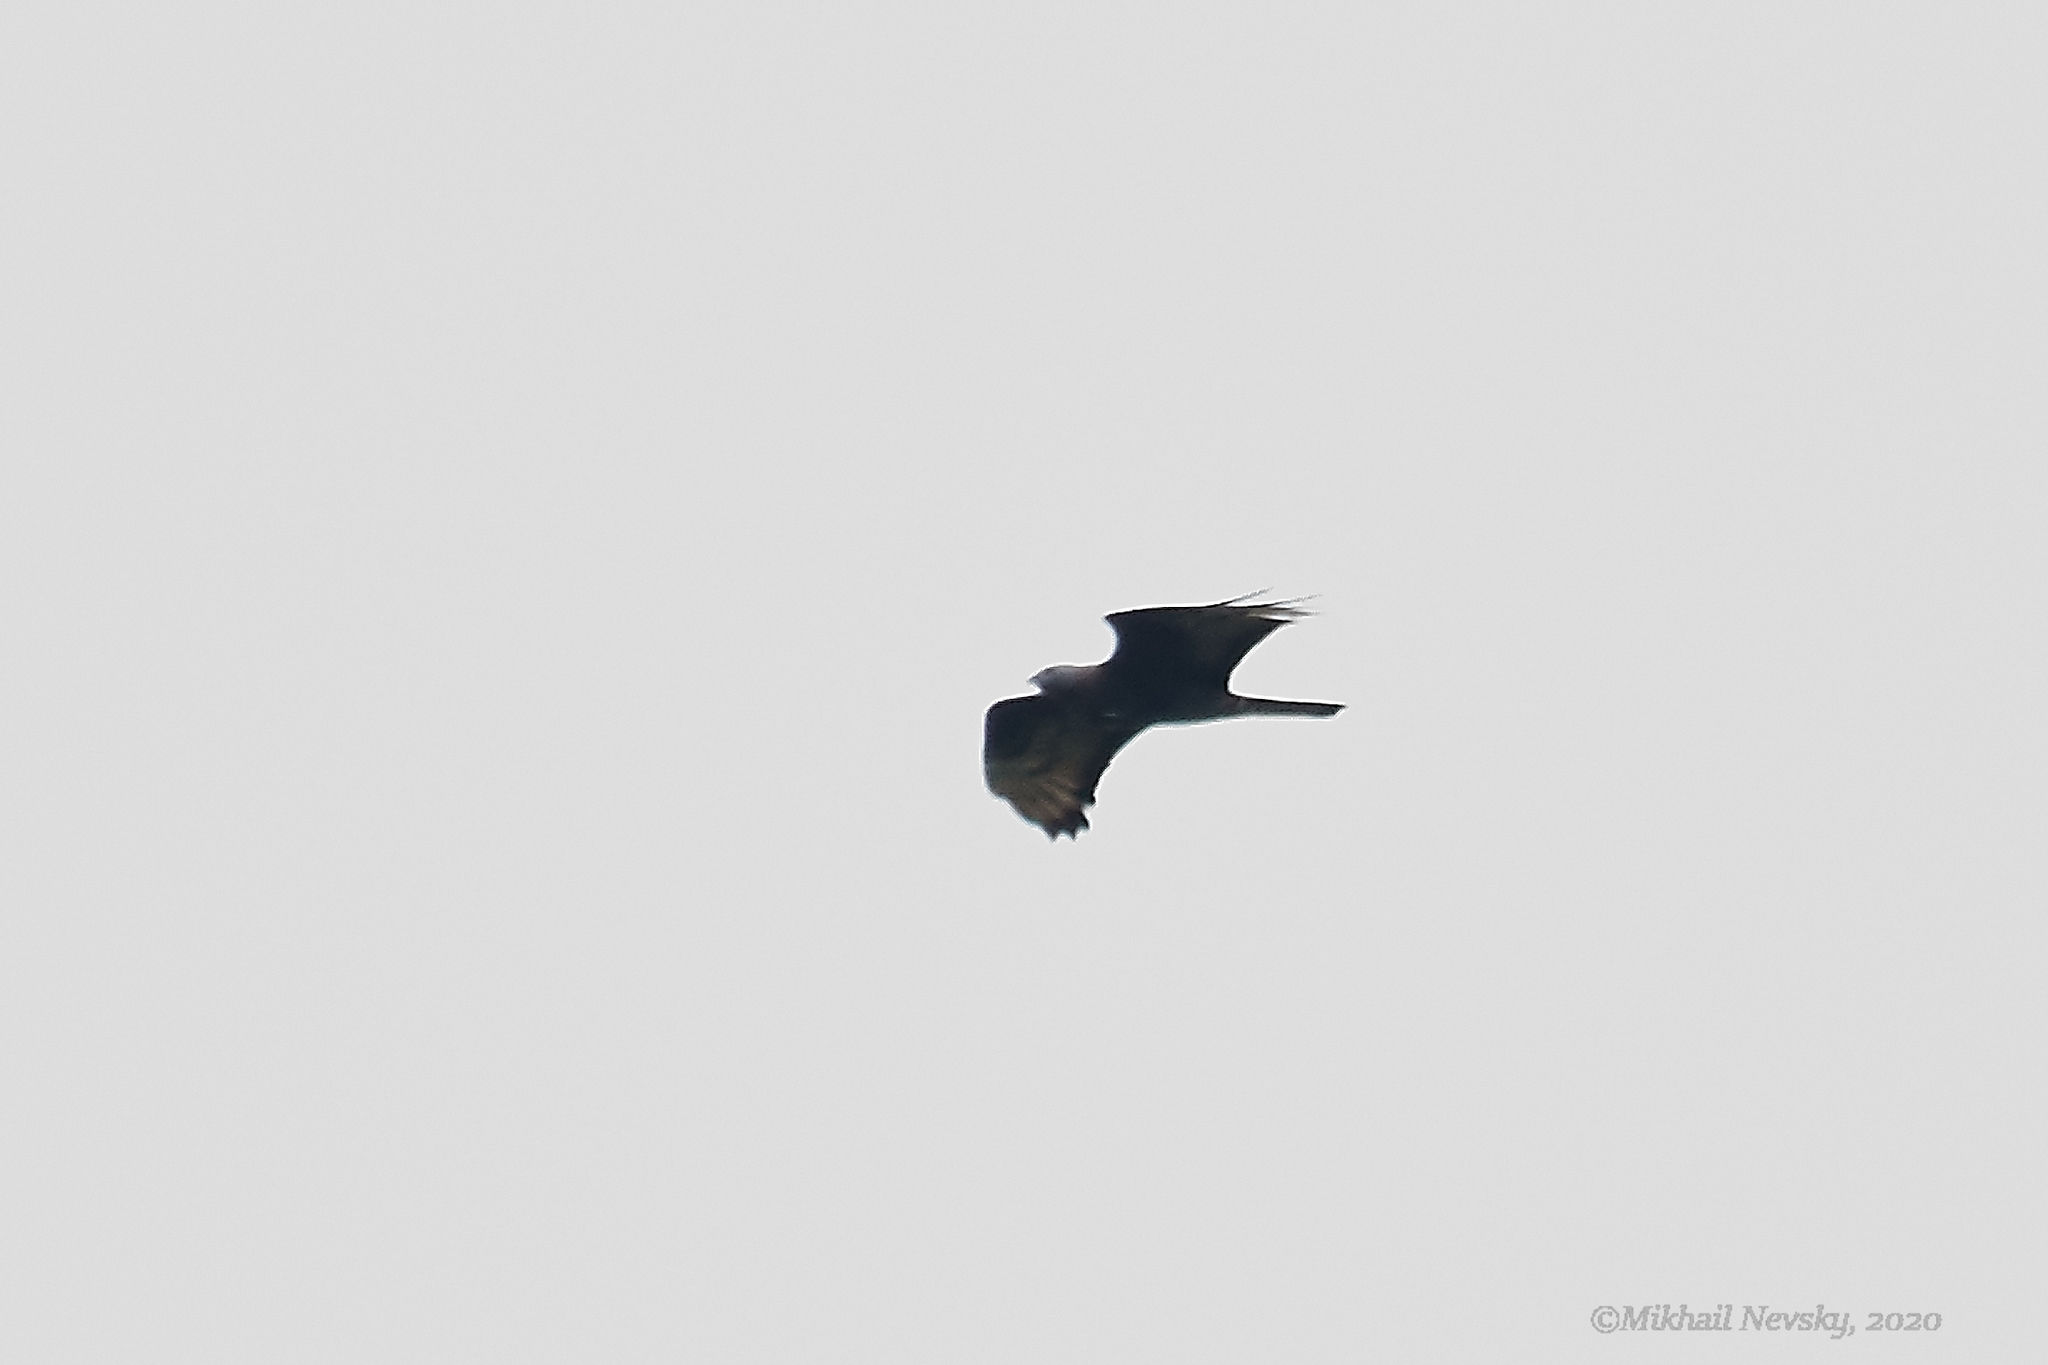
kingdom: Animalia
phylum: Chordata
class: Aves
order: Accipitriformes
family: Accipitridae
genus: Pernis
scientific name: Pernis apivorus
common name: European honey buzzard
